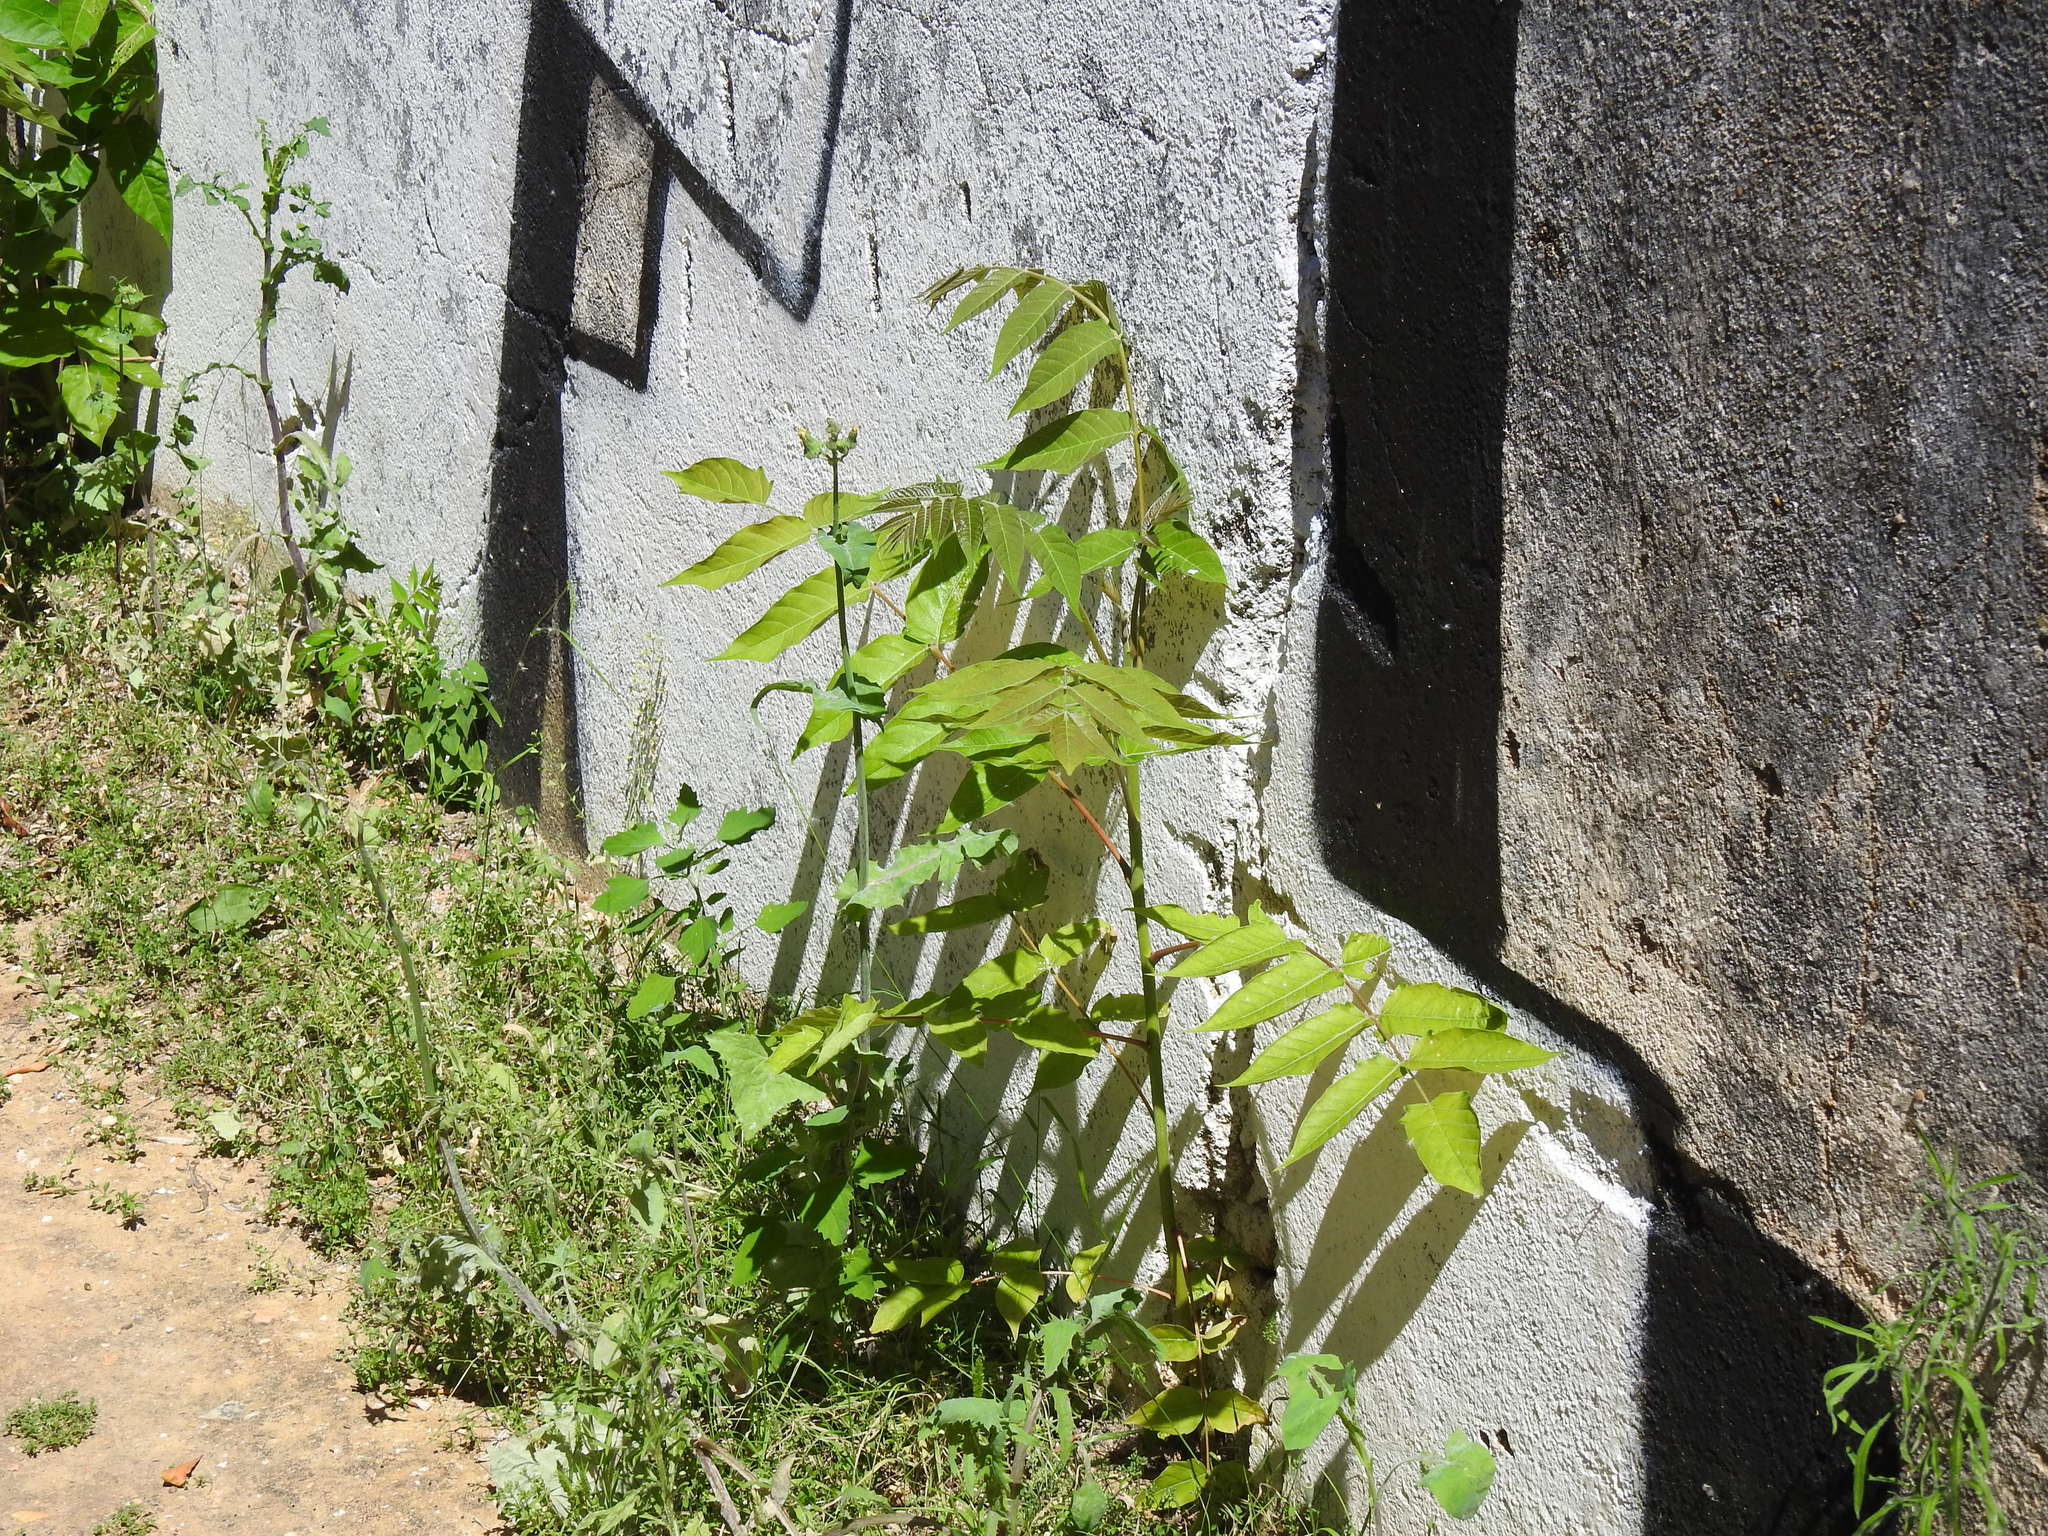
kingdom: Plantae
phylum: Tracheophyta
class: Magnoliopsida
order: Sapindales
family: Simaroubaceae
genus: Ailanthus
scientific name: Ailanthus altissima
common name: Tree-of-heaven
